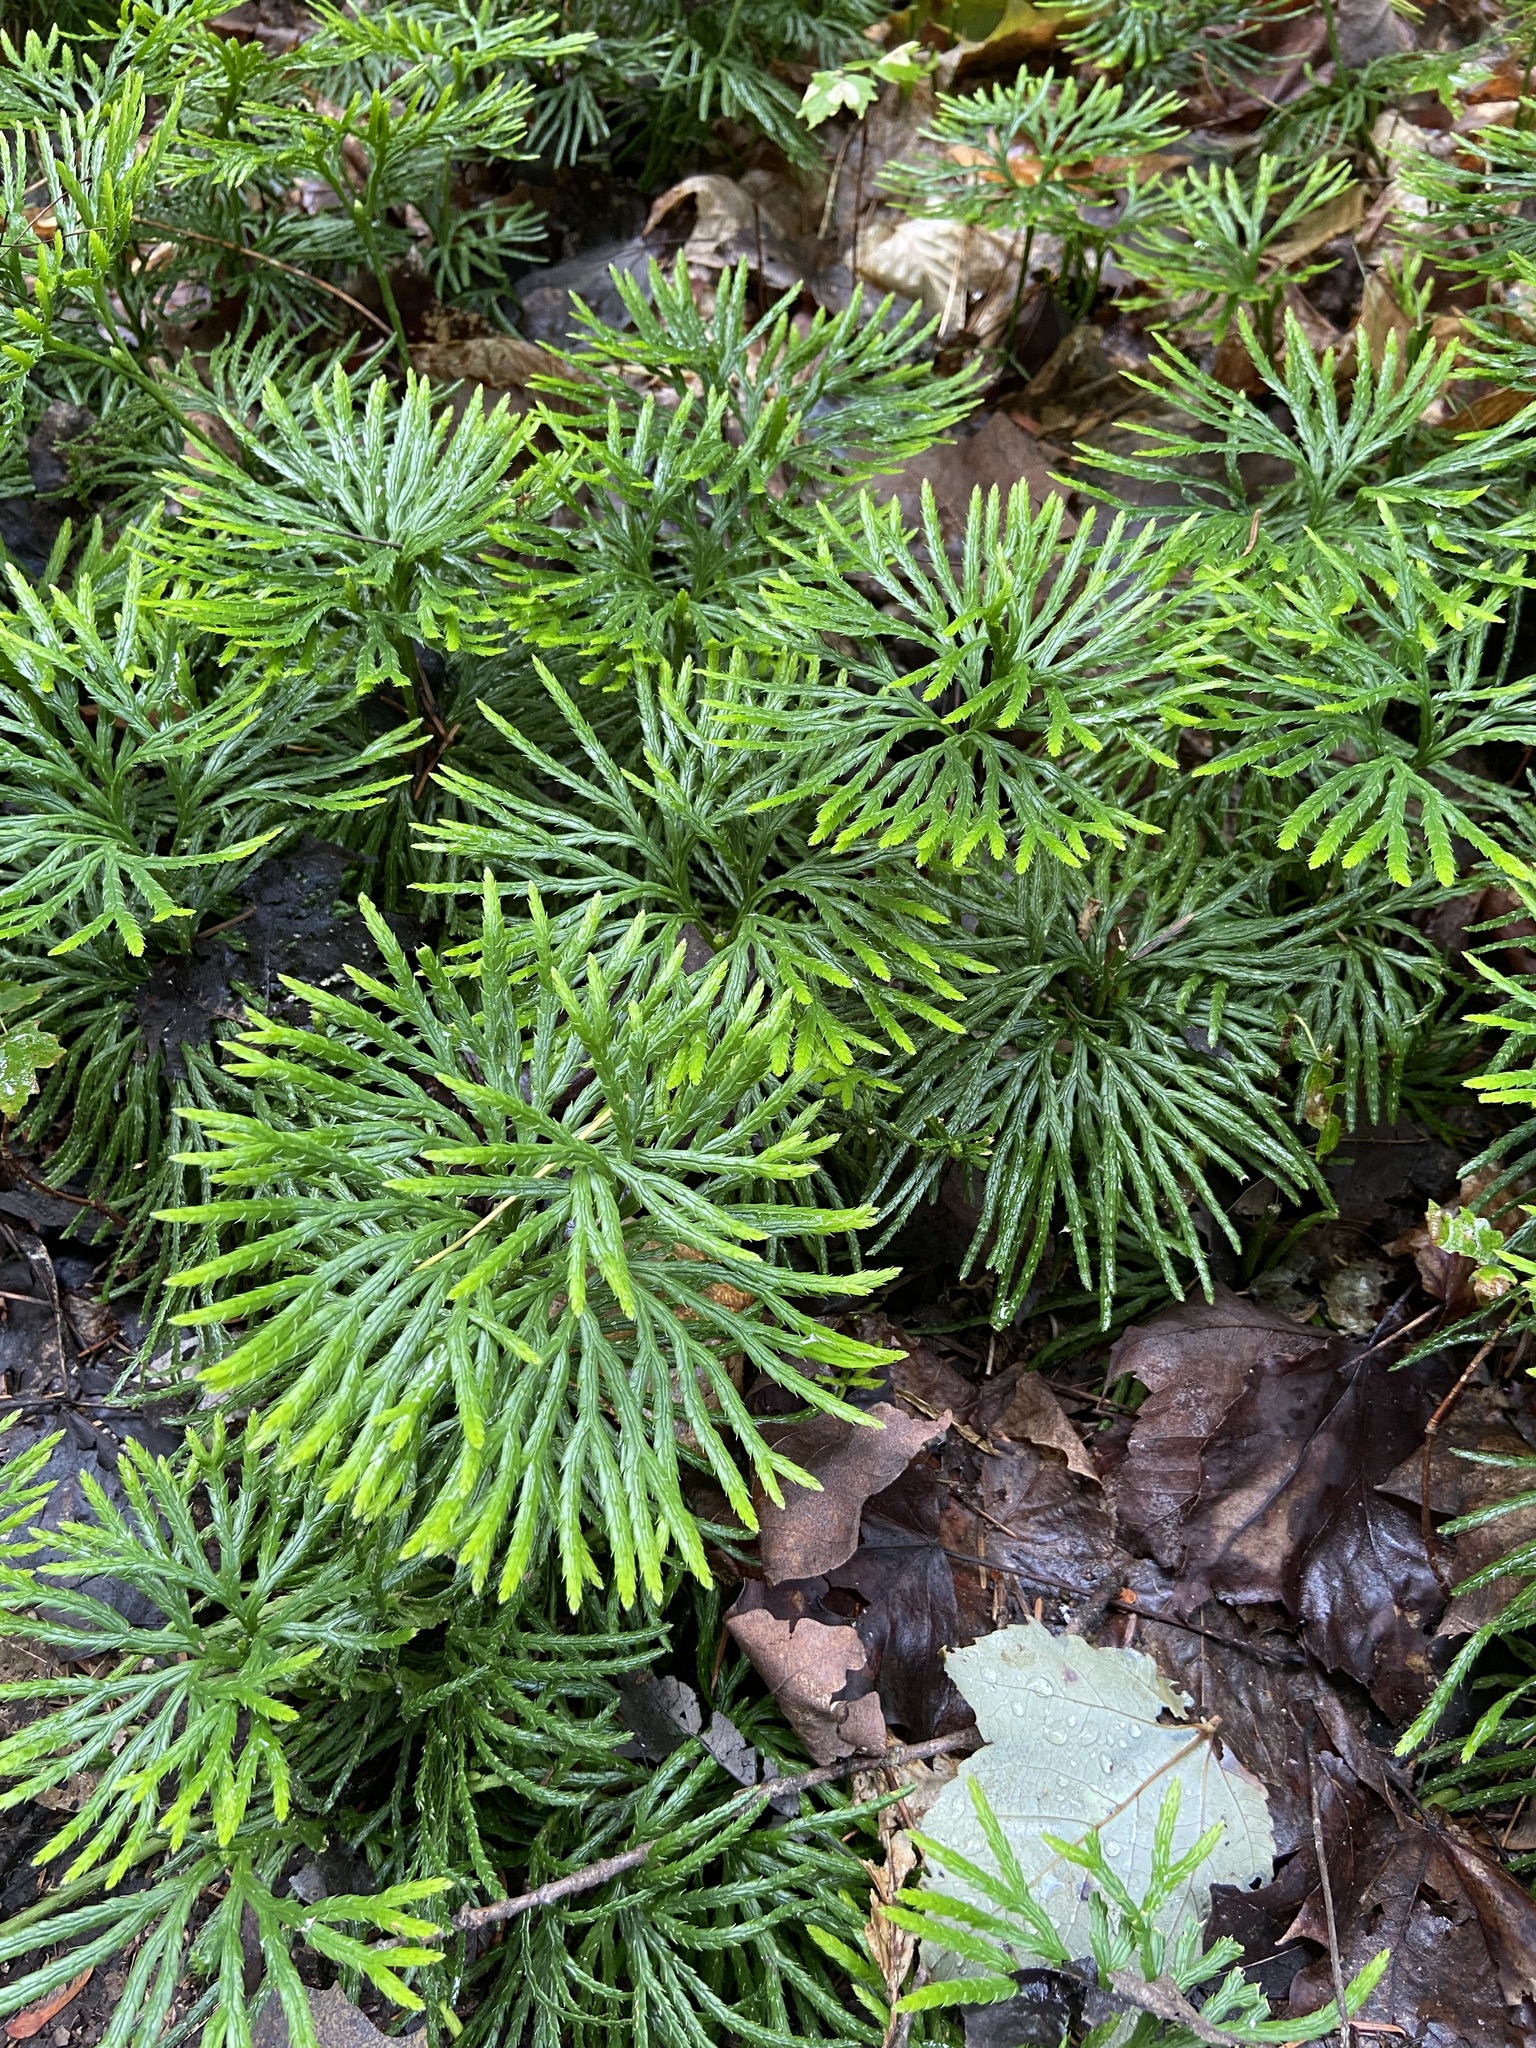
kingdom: Plantae
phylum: Tracheophyta
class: Lycopodiopsida
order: Lycopodiales
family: Lycopodiaceae
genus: Diphasiastrum
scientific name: Diphasiastrum digitatum
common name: Southern running-pine
